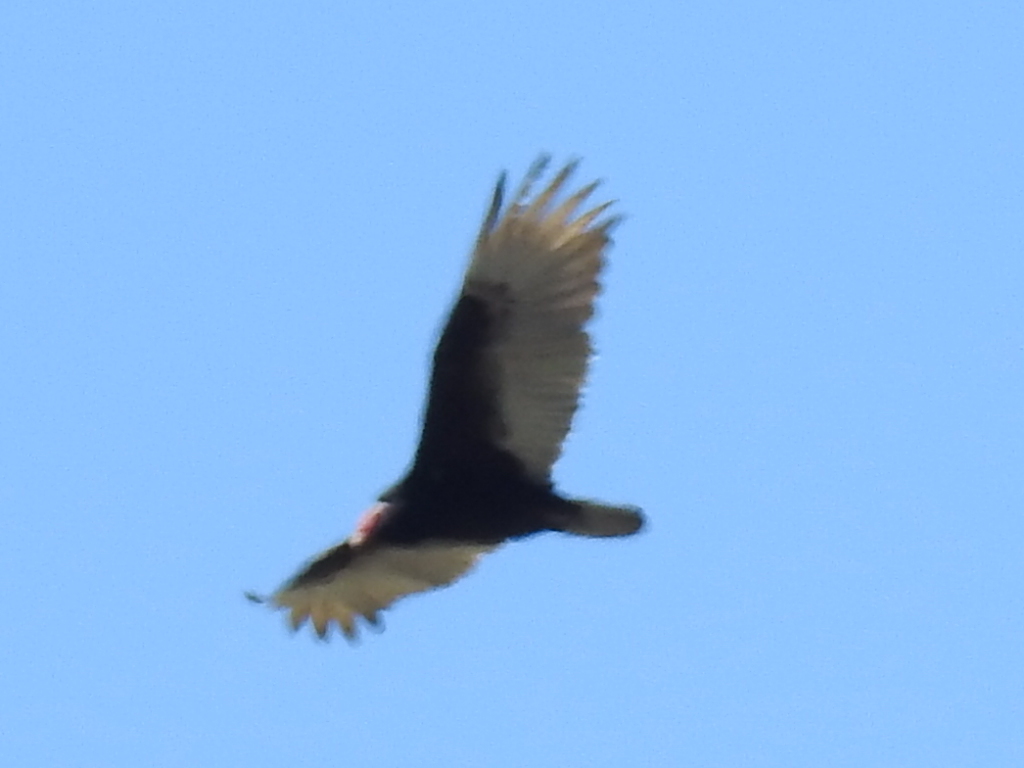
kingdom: Animalia
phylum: Chordata
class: Aves
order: Accipitriformes
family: Cathartidae
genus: Cathartes
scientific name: Cathartes aura
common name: Turkey vulture
